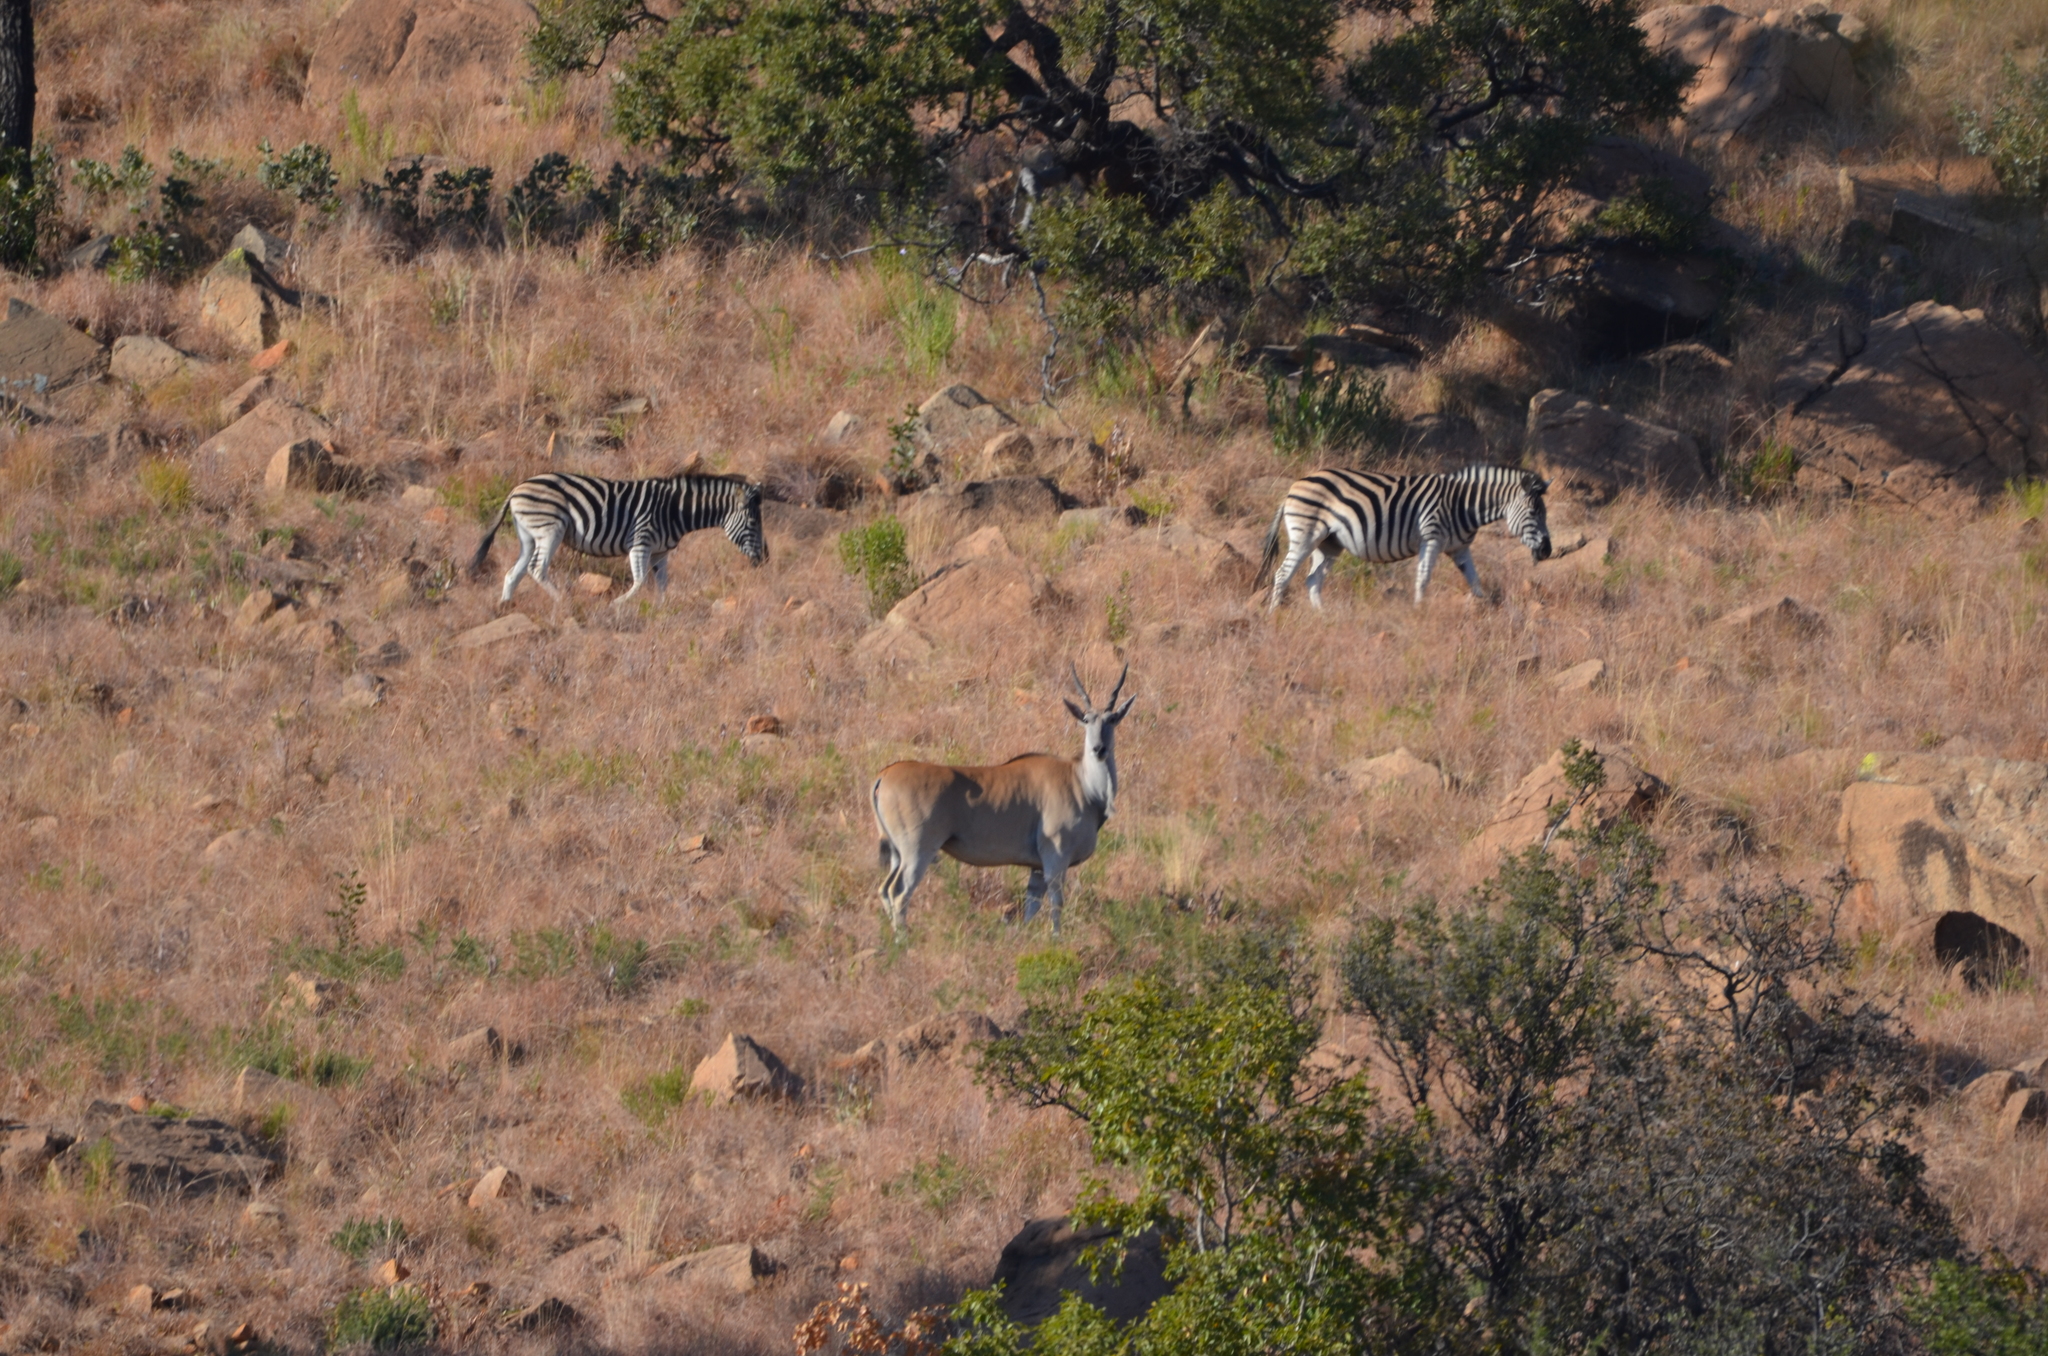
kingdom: Animalia
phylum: Chordata
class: Mammalia
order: Perissodactyla
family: Equidae
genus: Equus
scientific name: Equus quagga
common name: Plains zebra
